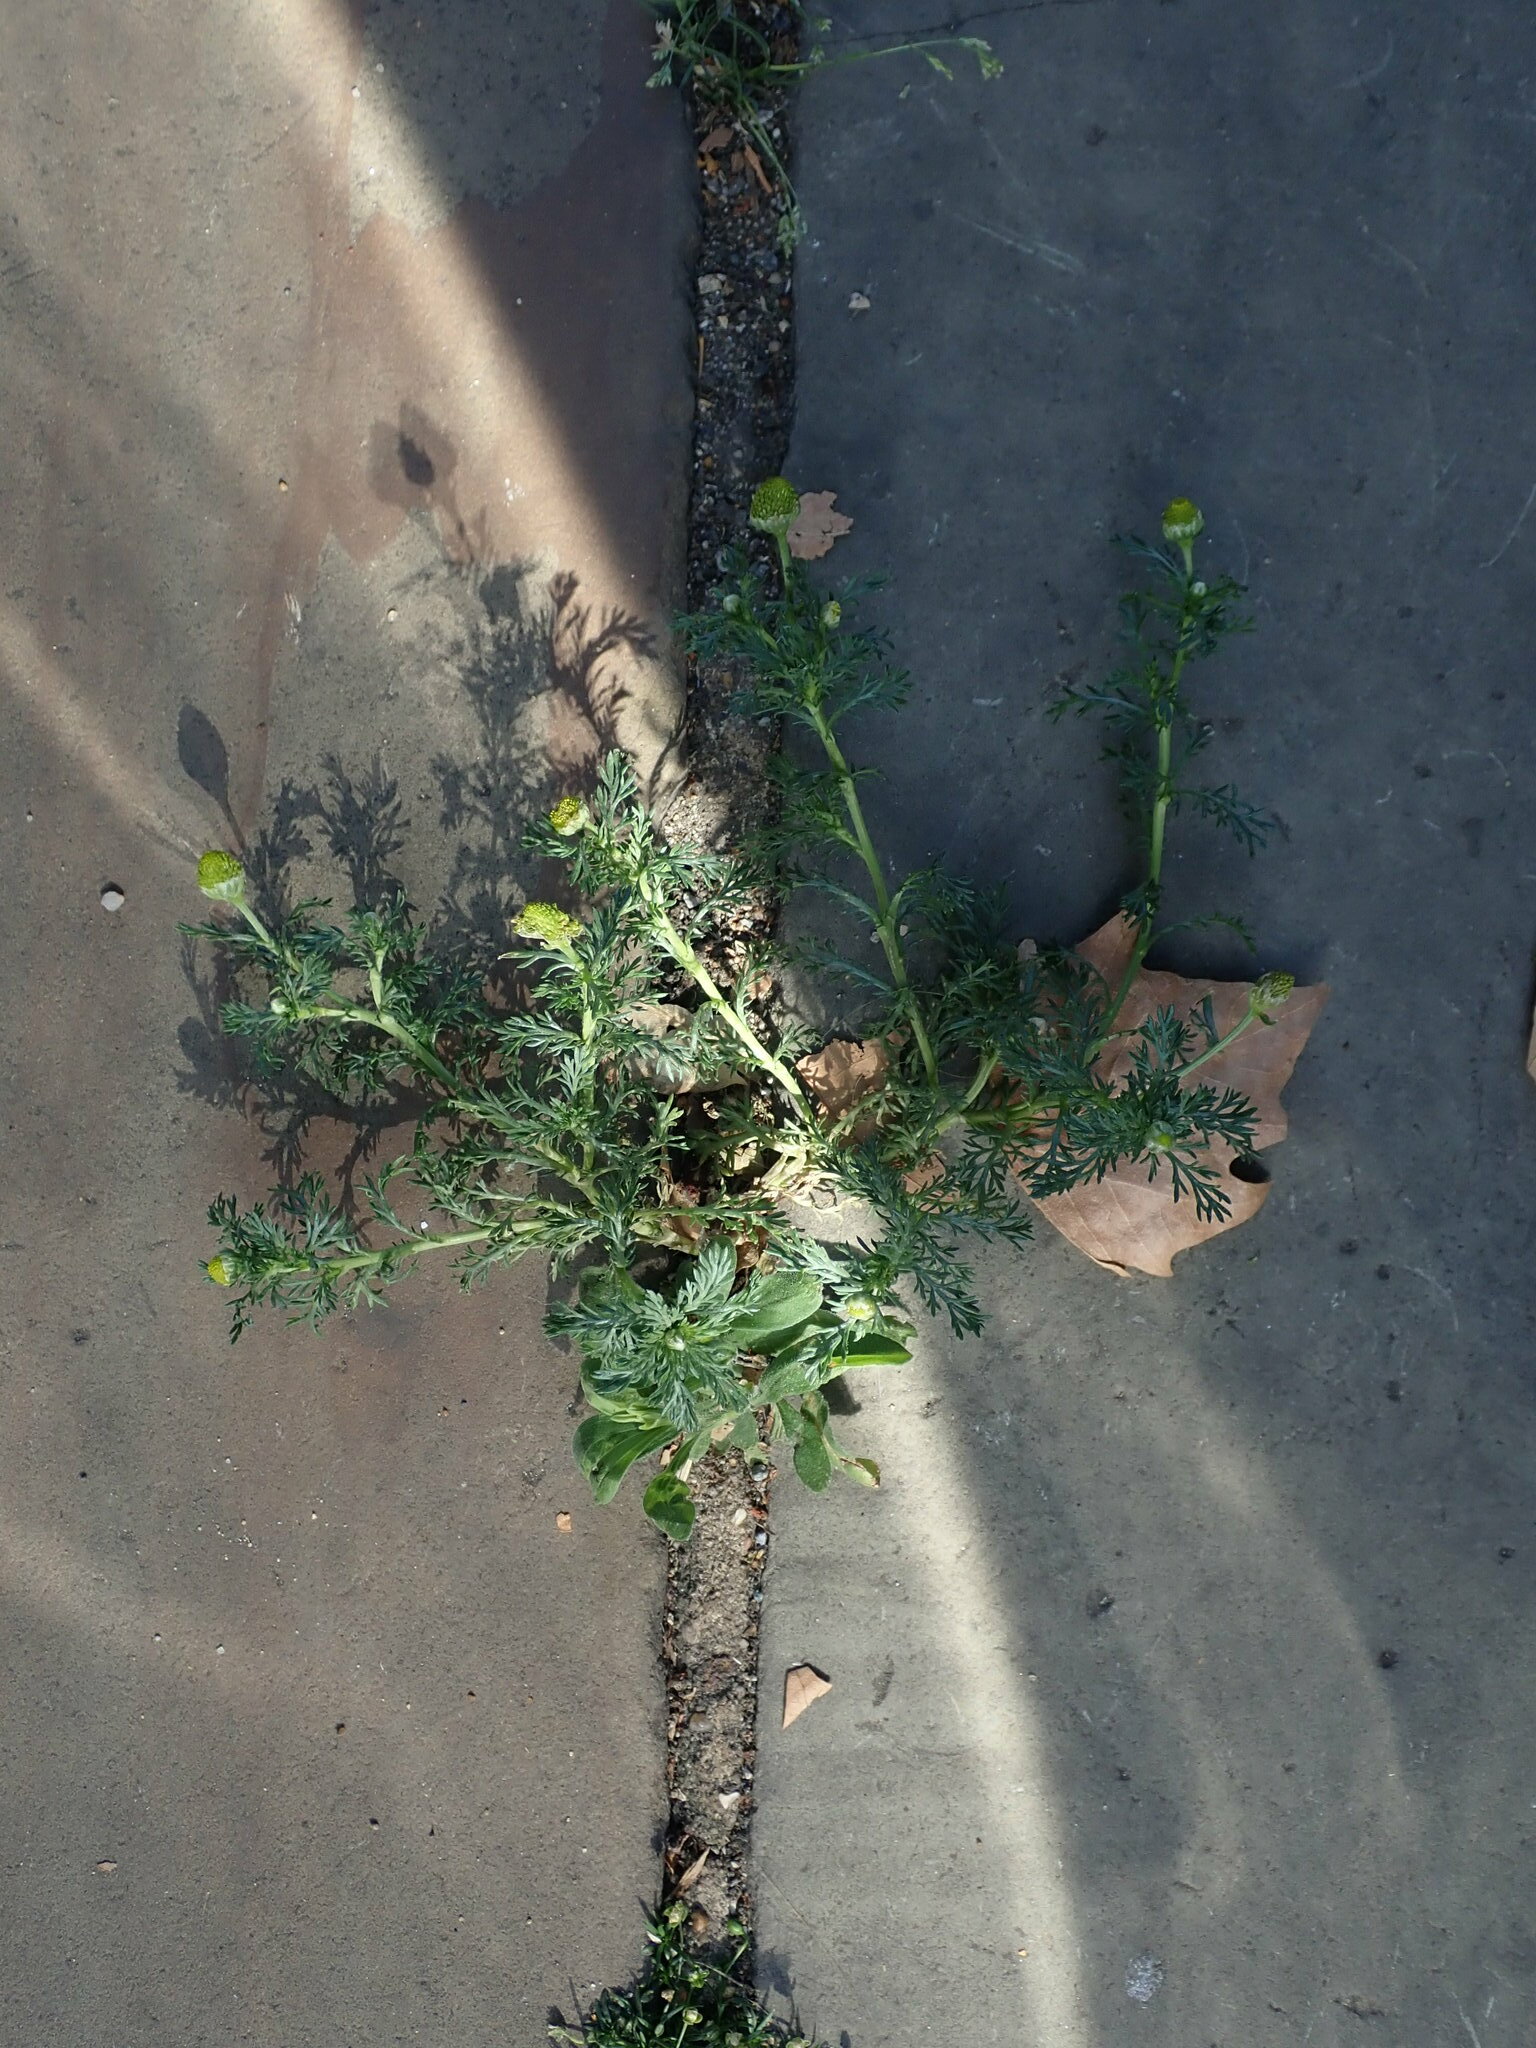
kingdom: Plantae
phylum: Tracheophyta
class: Magnoliopsida
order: Asterales
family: Asteraceae
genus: Matricaria
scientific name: Matricaria discoidea
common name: Disc mayweed
